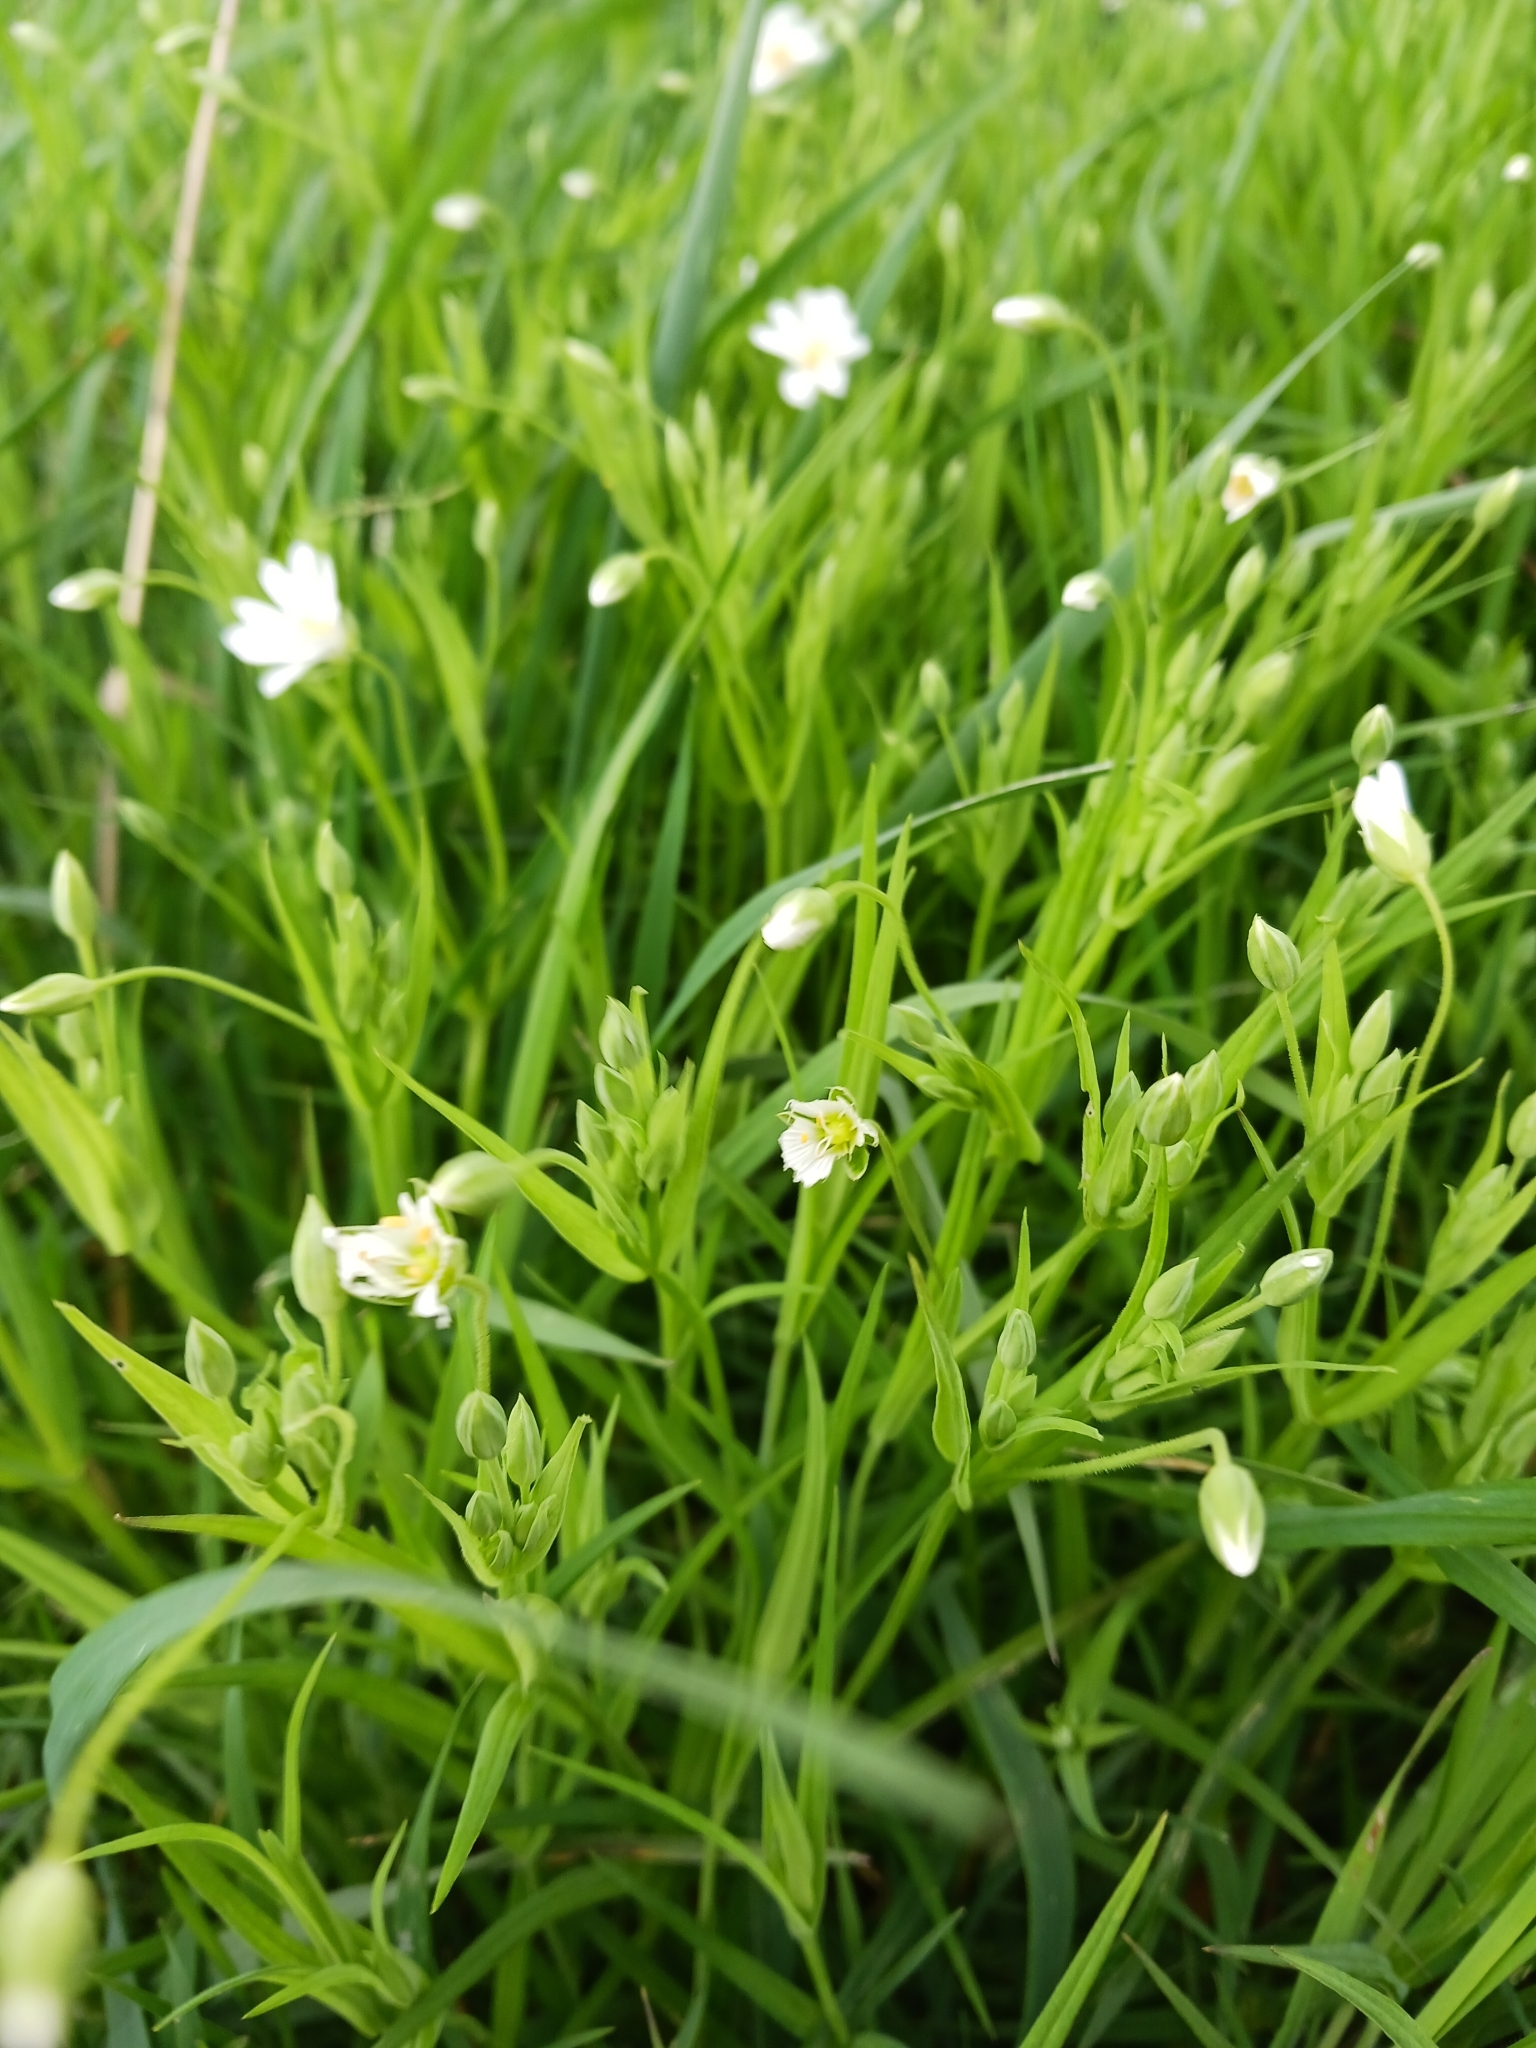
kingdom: Plantae
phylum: Tracheophyta
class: Magnoliopsida
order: Caryophyllales
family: Caryophyllaceae
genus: Rabelera
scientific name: Rabelera holostea
